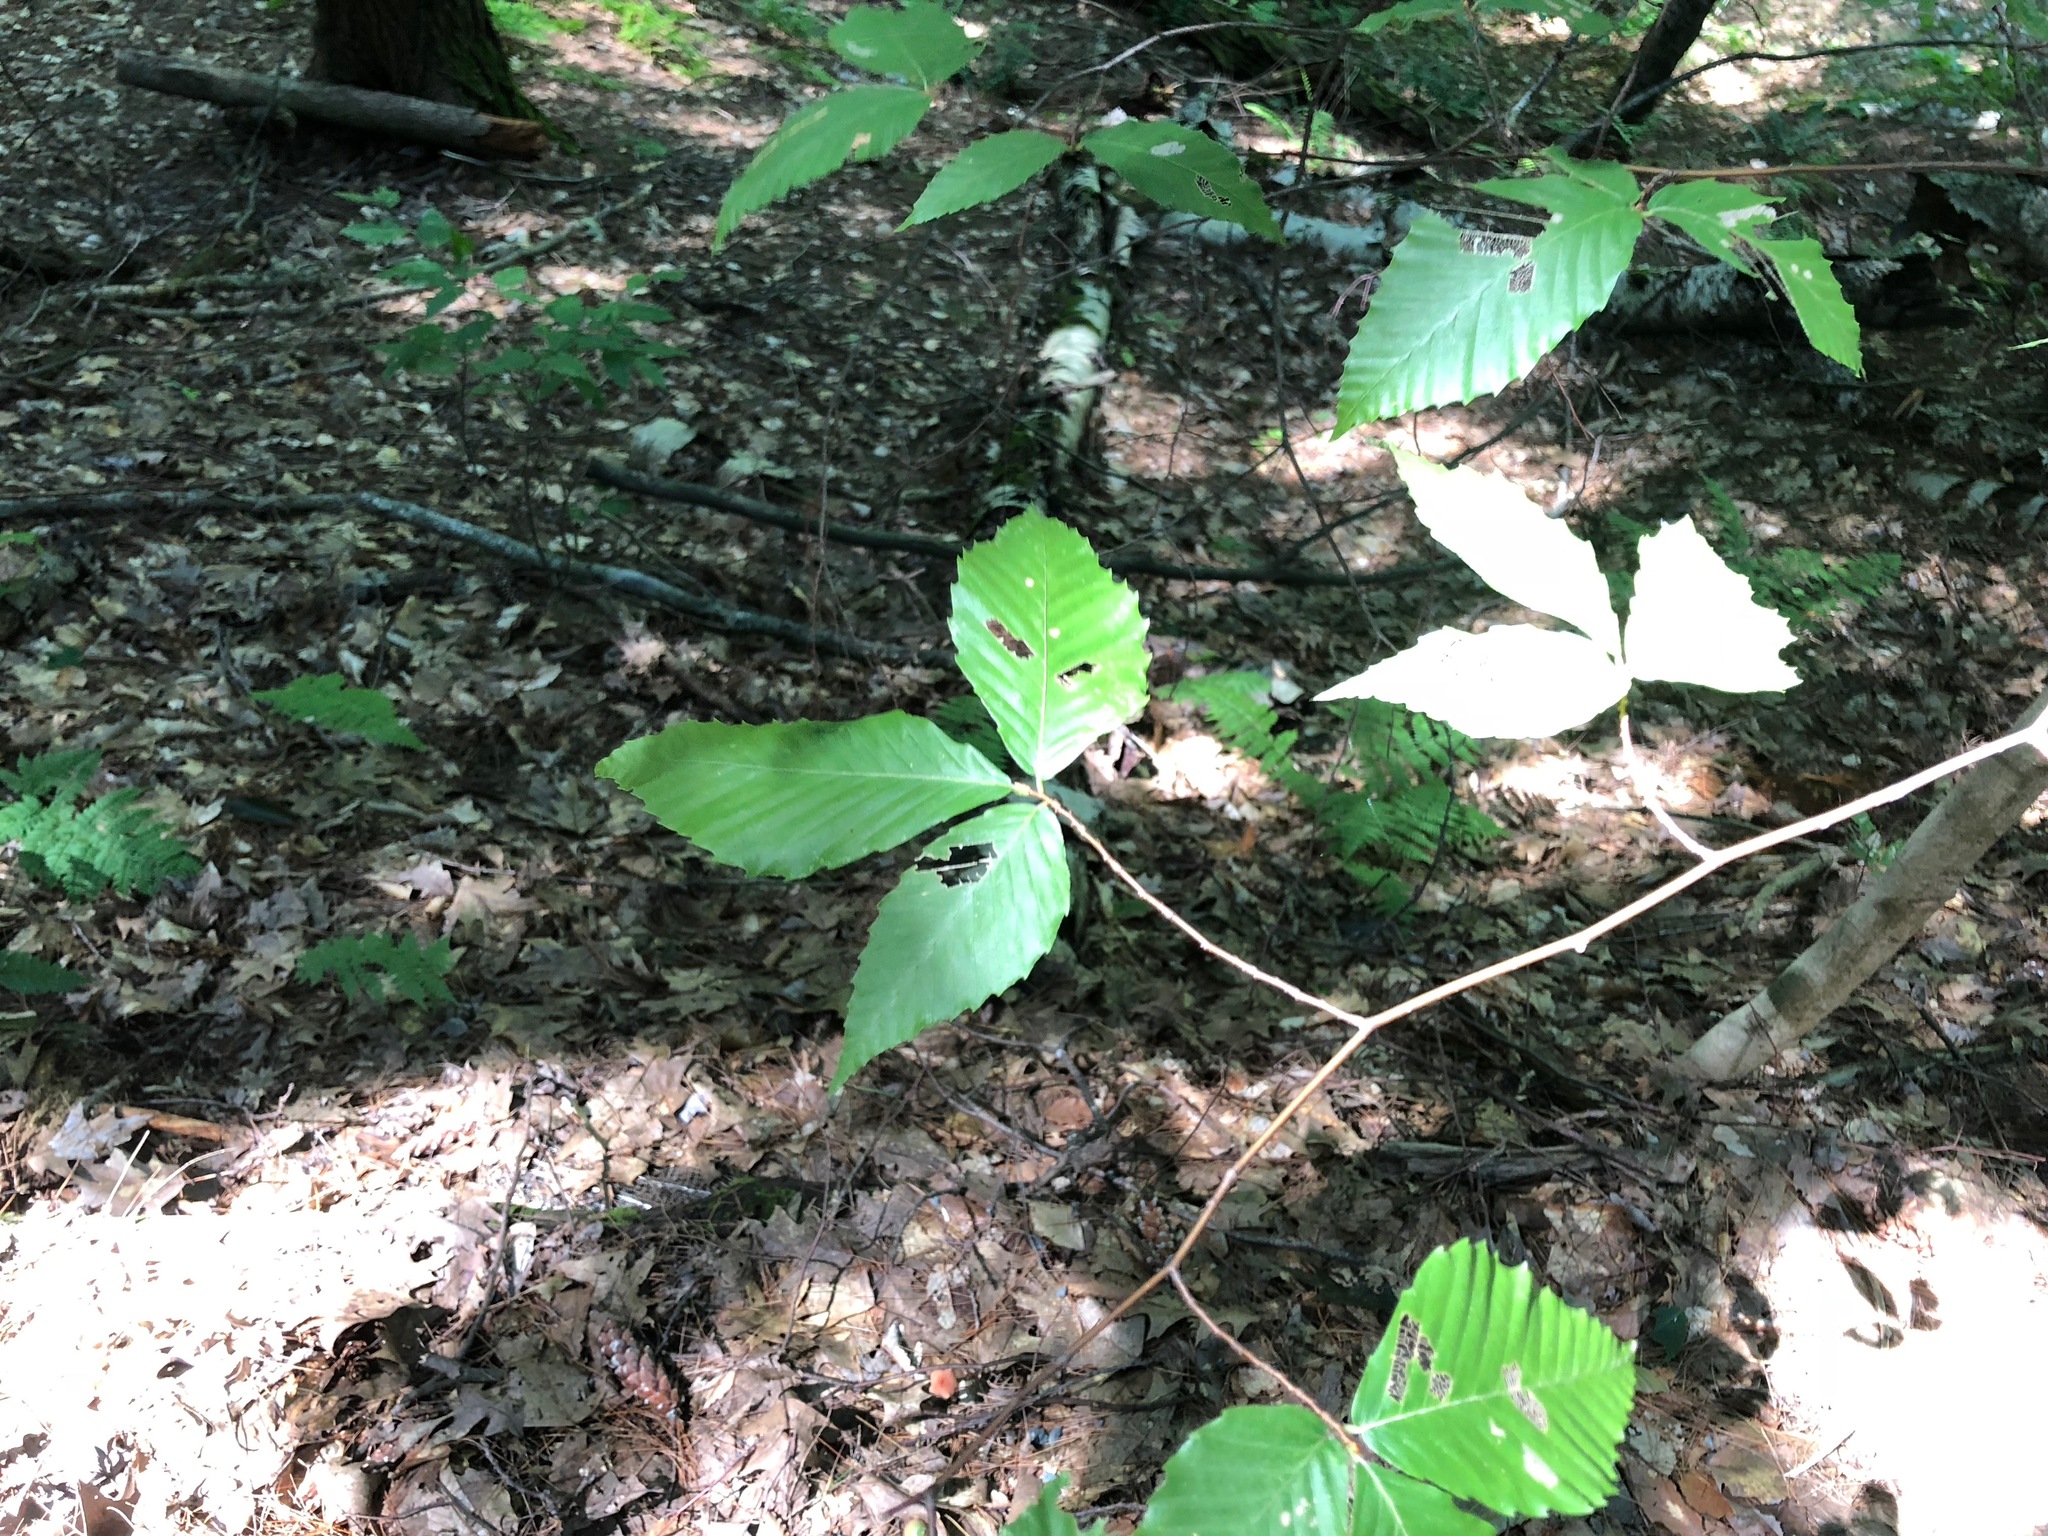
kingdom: Plantae
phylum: Tracheophyta
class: Magnoliopsida
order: Fagales
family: Fagaceae
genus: Fagus
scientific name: Fagus grandifolia
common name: American beech
